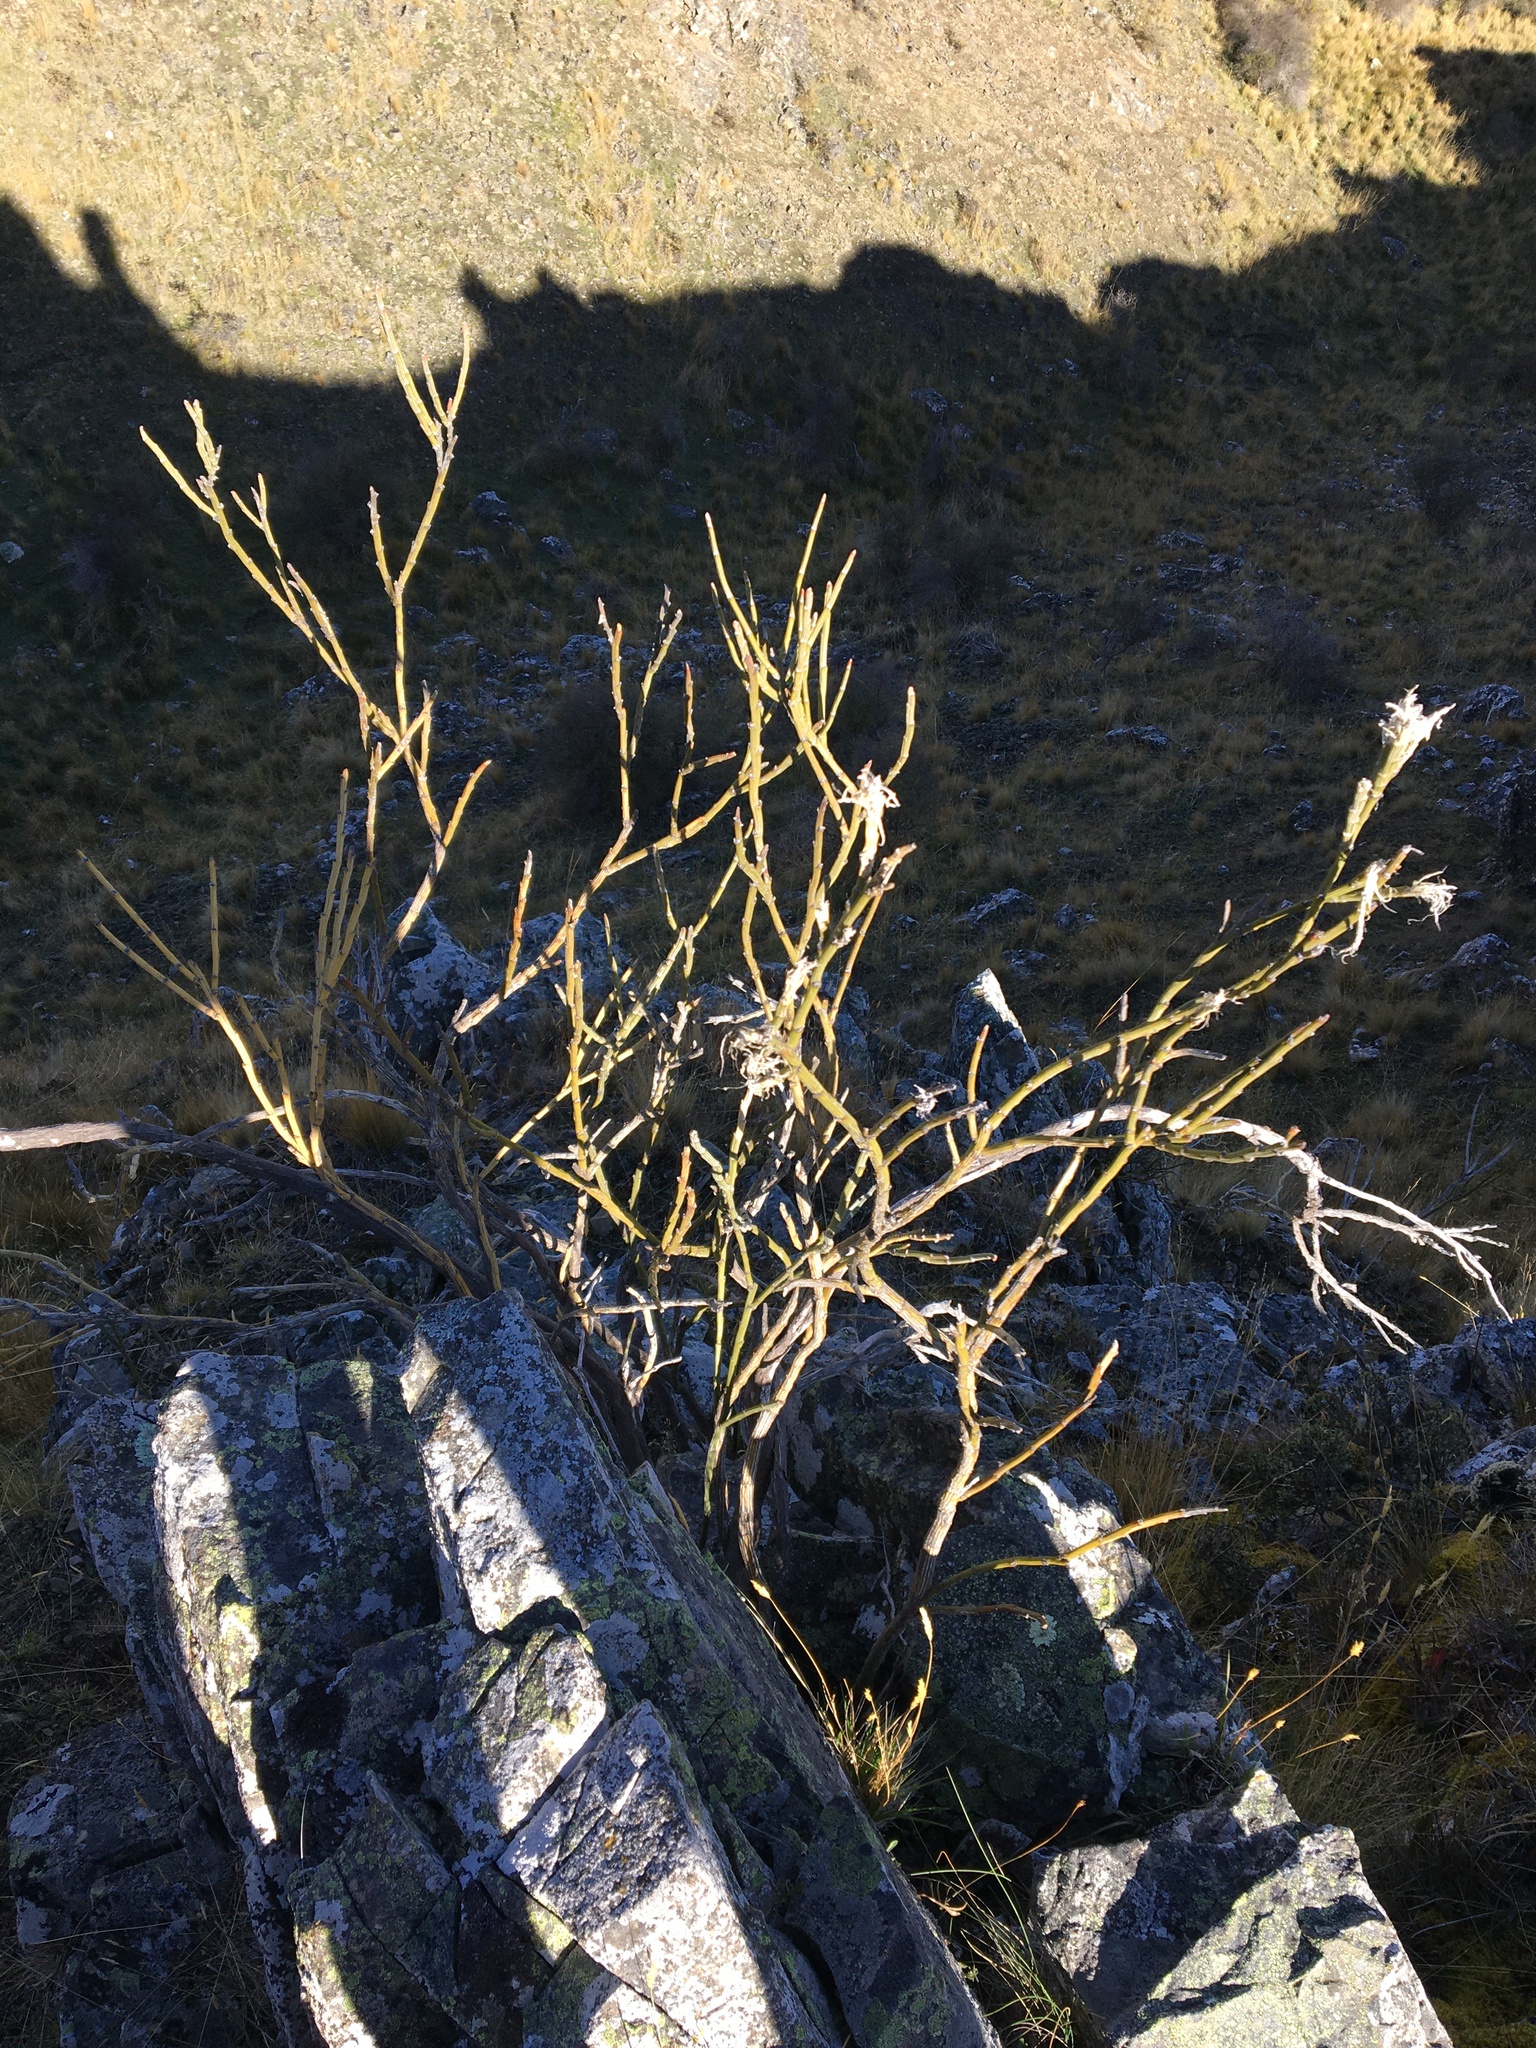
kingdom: Plantae
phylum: Tracheophyta
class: Magnoliopsida
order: Fabales
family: Fabaceae
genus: Carmichaelia
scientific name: Carmichaelia crassicaulis
